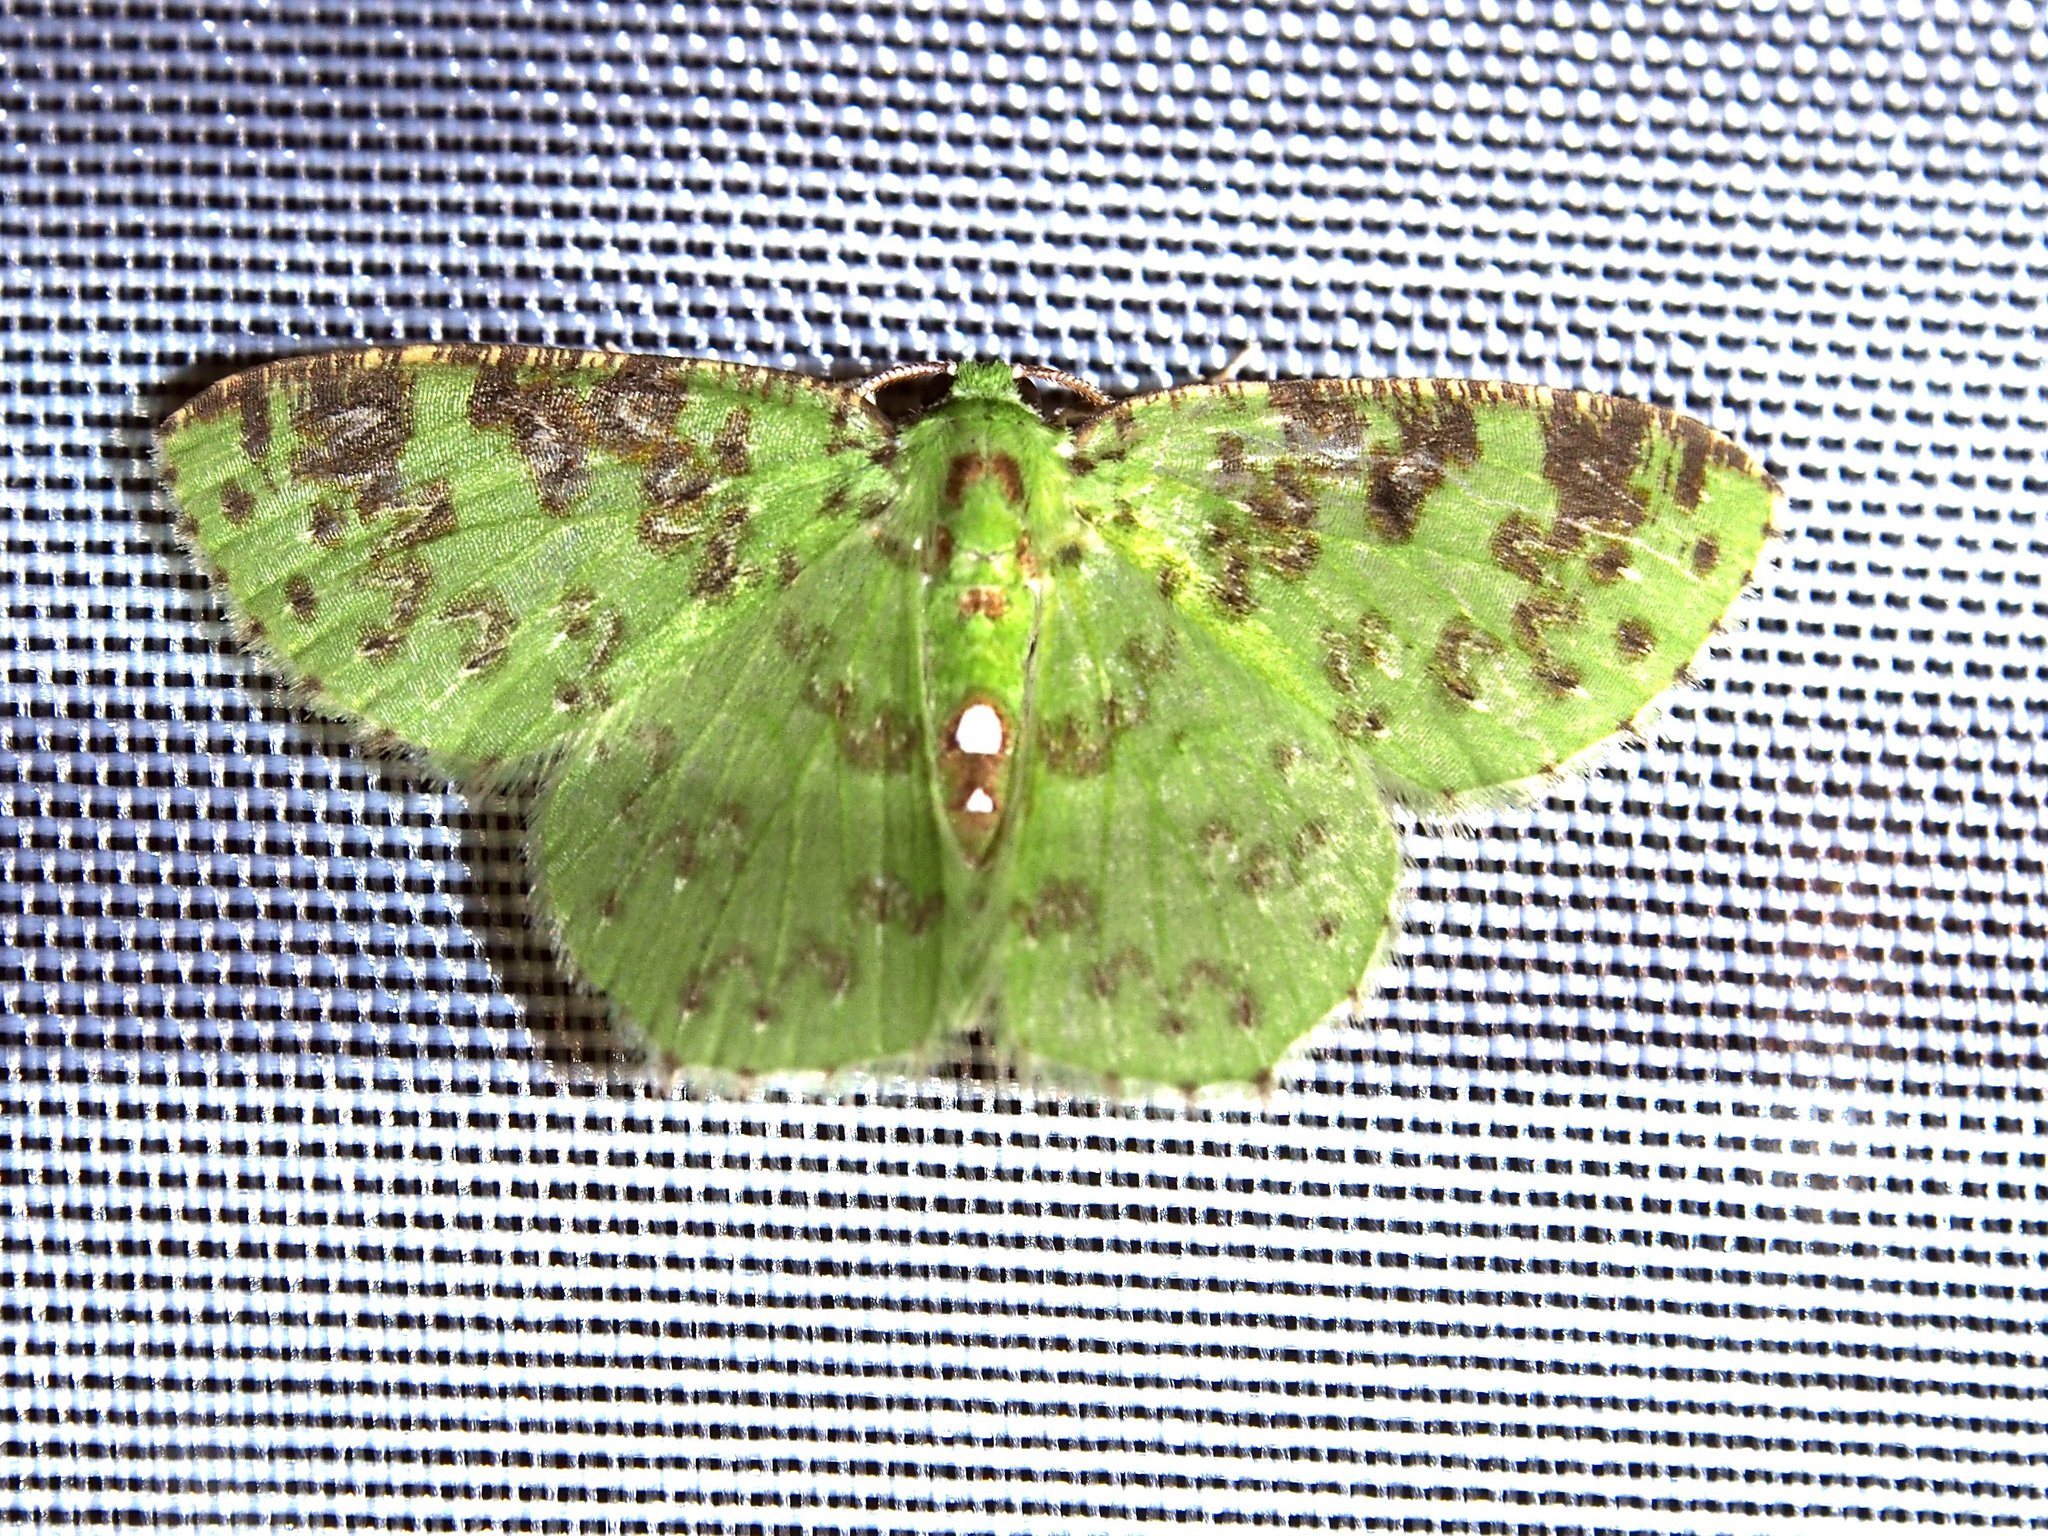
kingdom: Animalia
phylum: Arthropoda
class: Insecta
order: Lepidoptera
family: Geometridae
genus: Nemoria
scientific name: Nemoria adjunctaria
